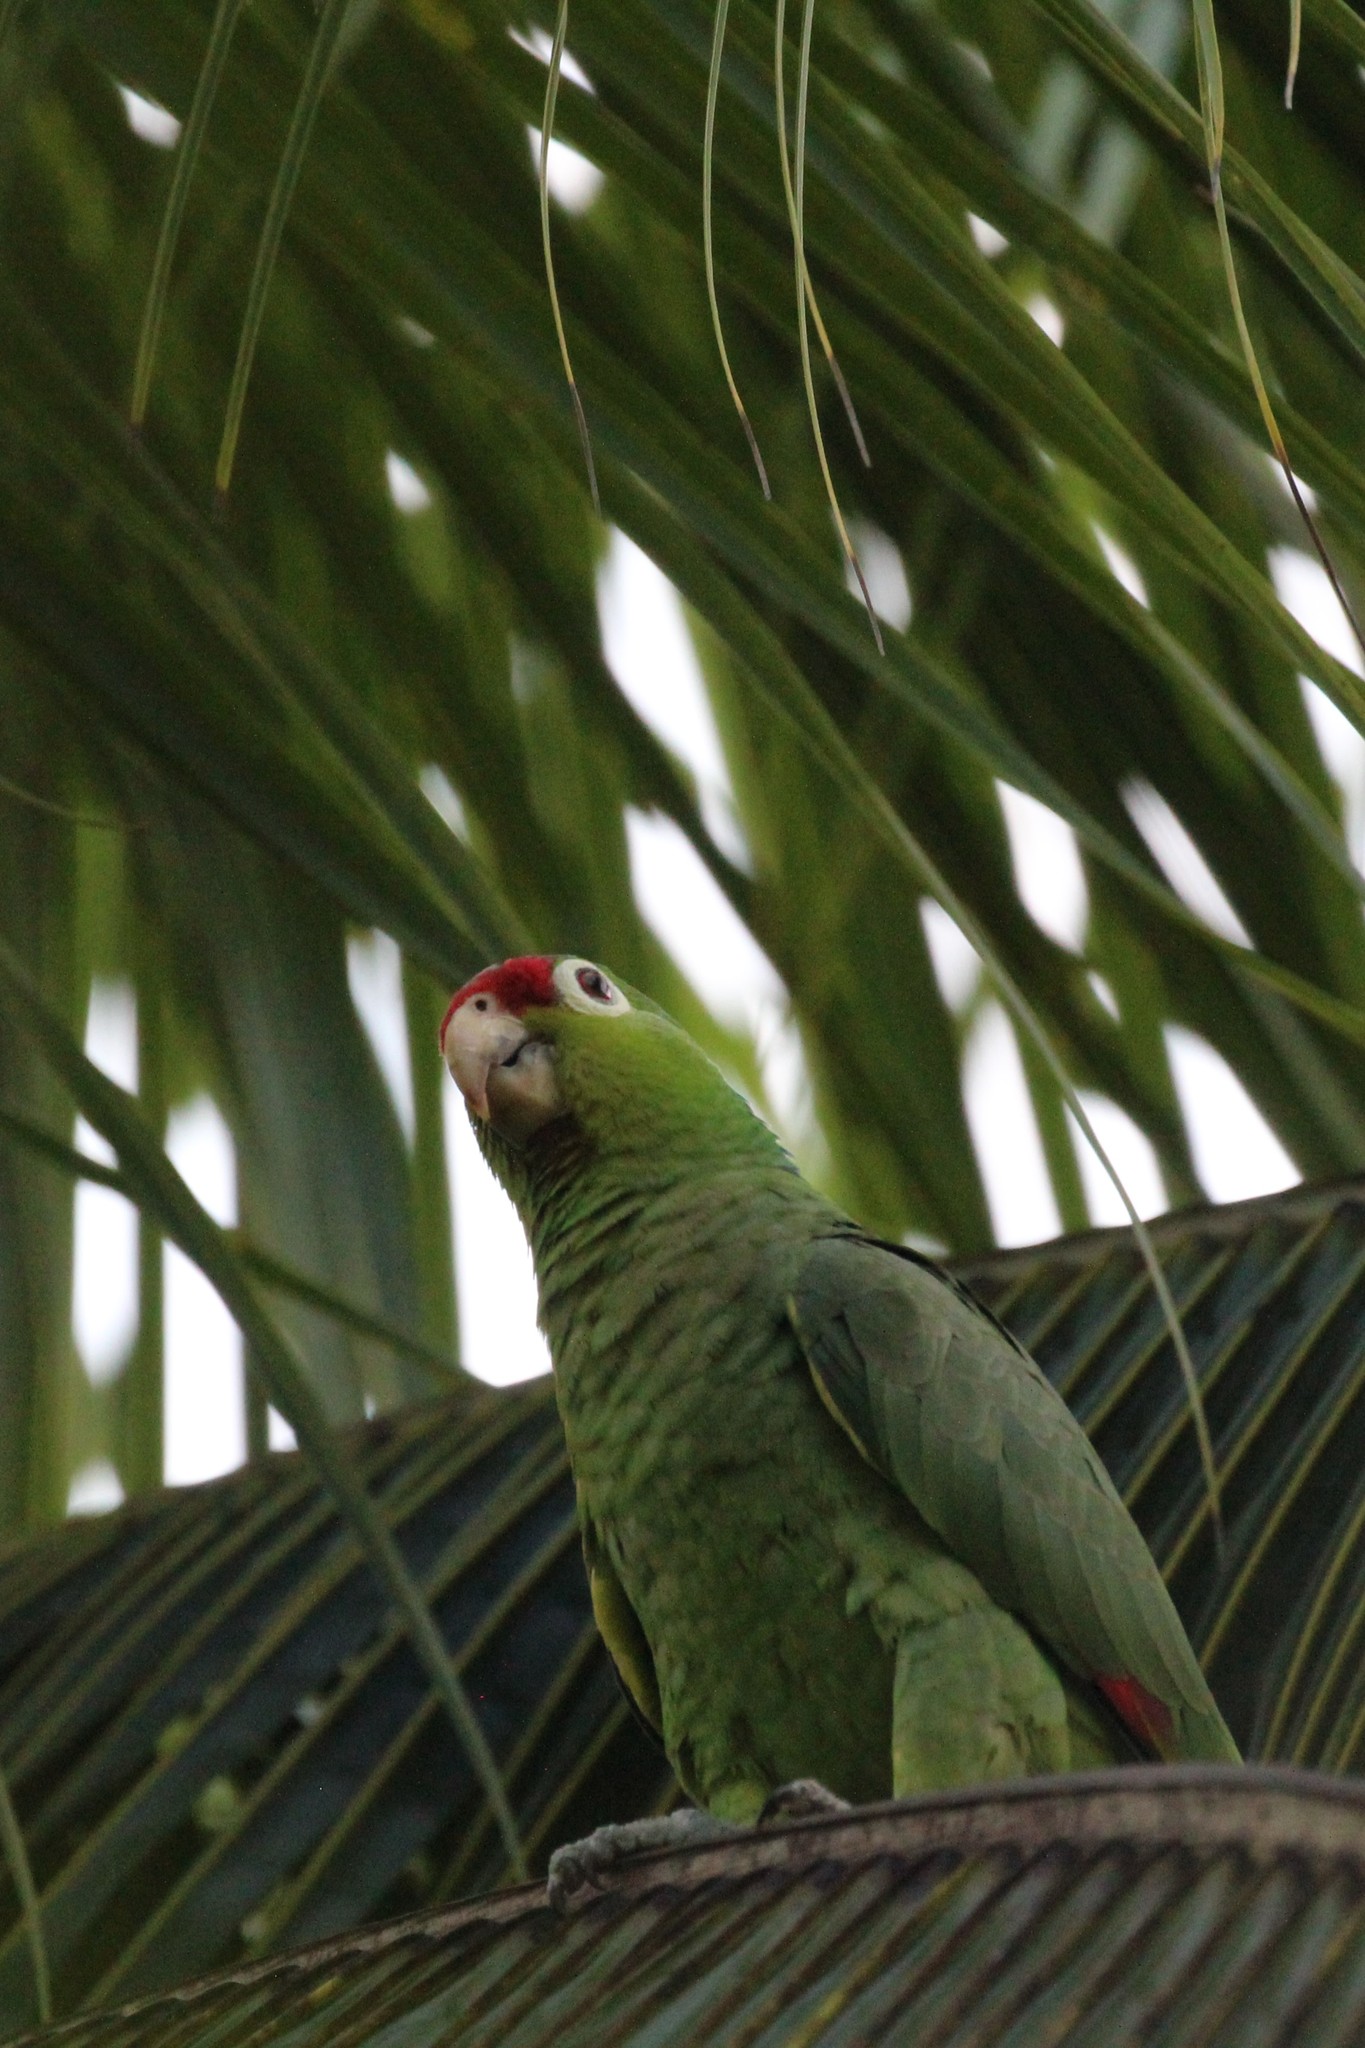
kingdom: Animalia
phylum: Chordata
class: Aves
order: Psittaciformes
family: Psittacidae
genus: Amazona
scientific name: Amazona autumnalis
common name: Red-lored amazon
